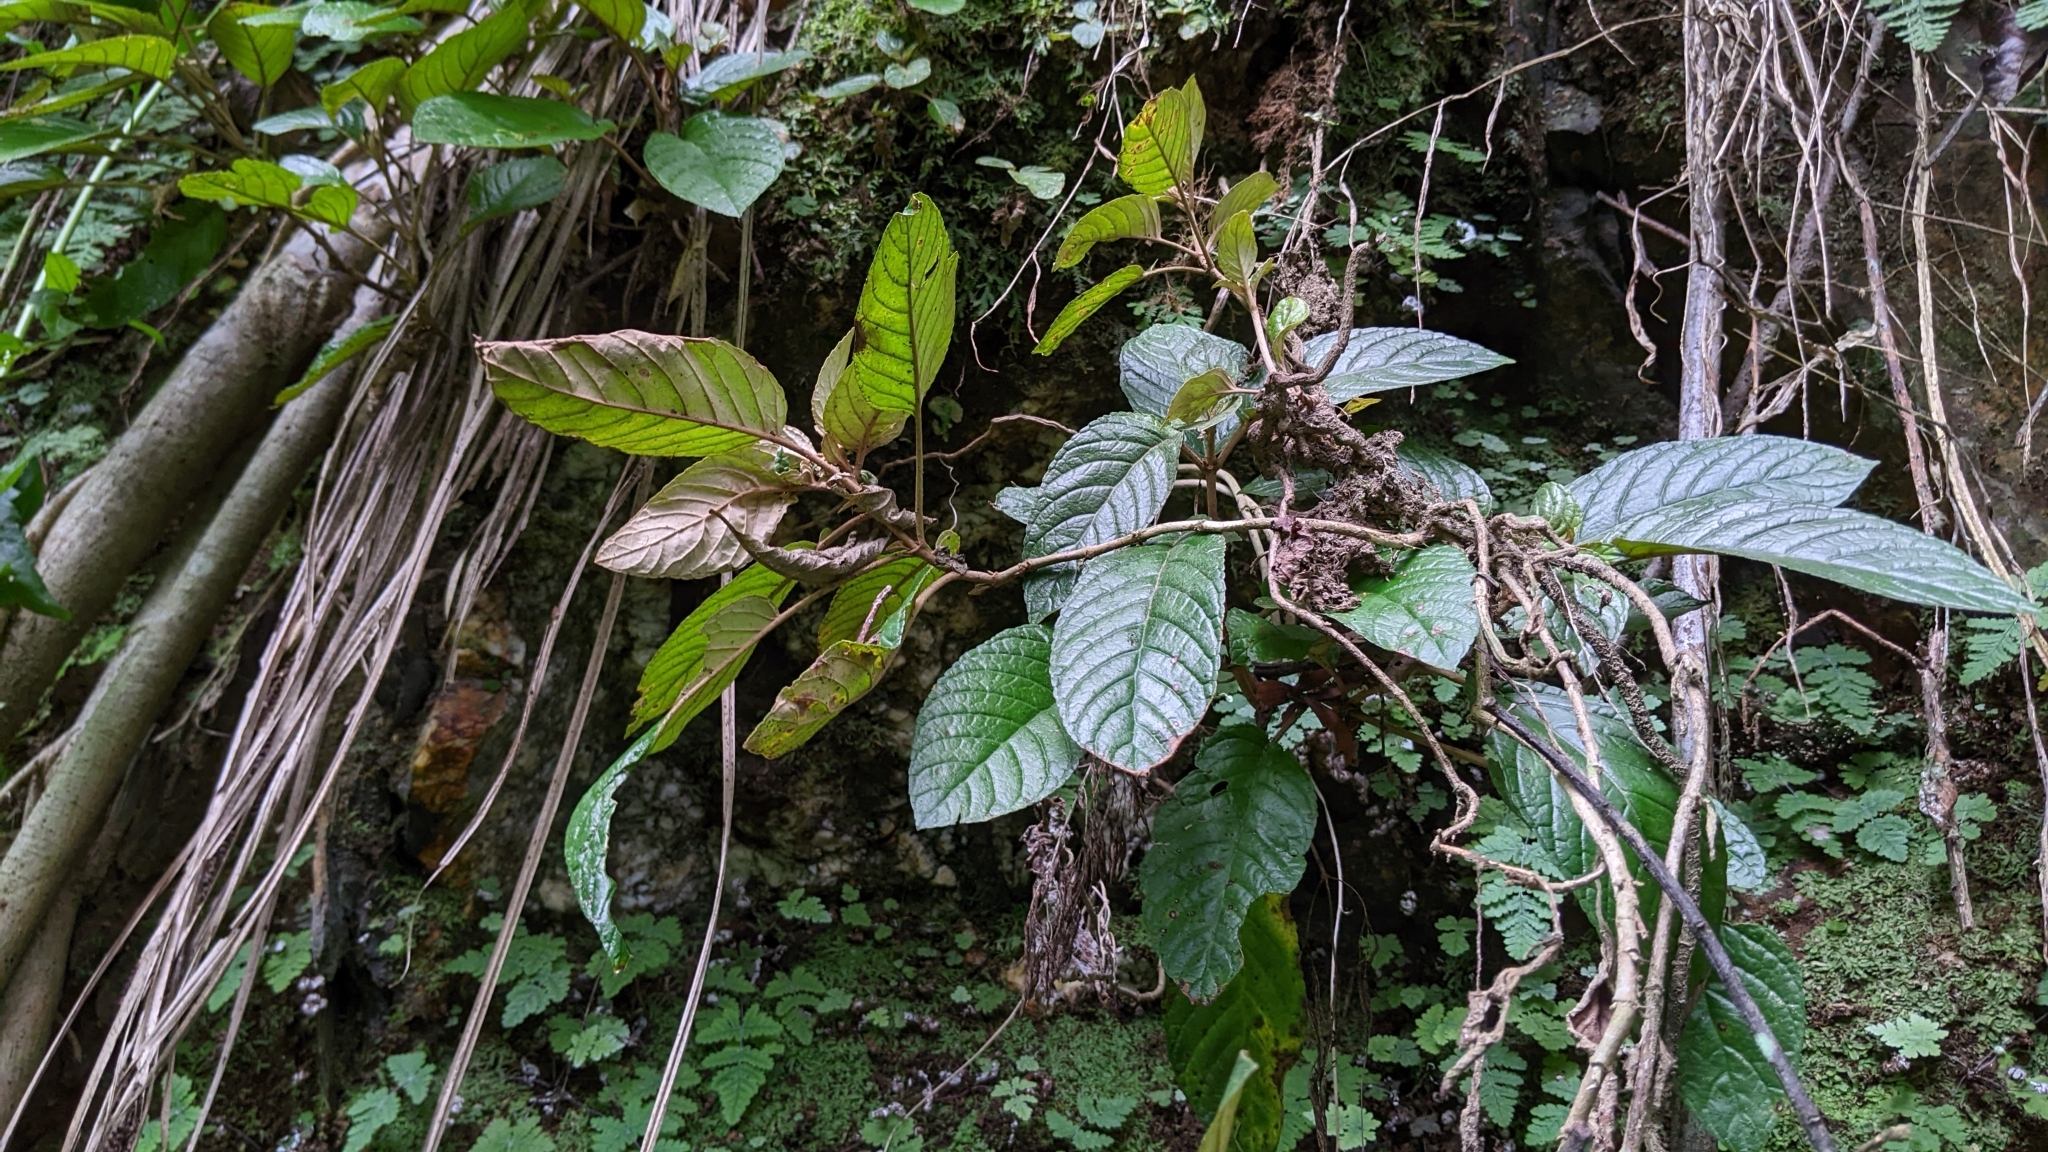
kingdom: Plantae
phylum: Tracheophyta
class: Magnoliopsida
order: Lamiales
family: Gesneriaceae
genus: Paraboea
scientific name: Paraboea swinhoei
